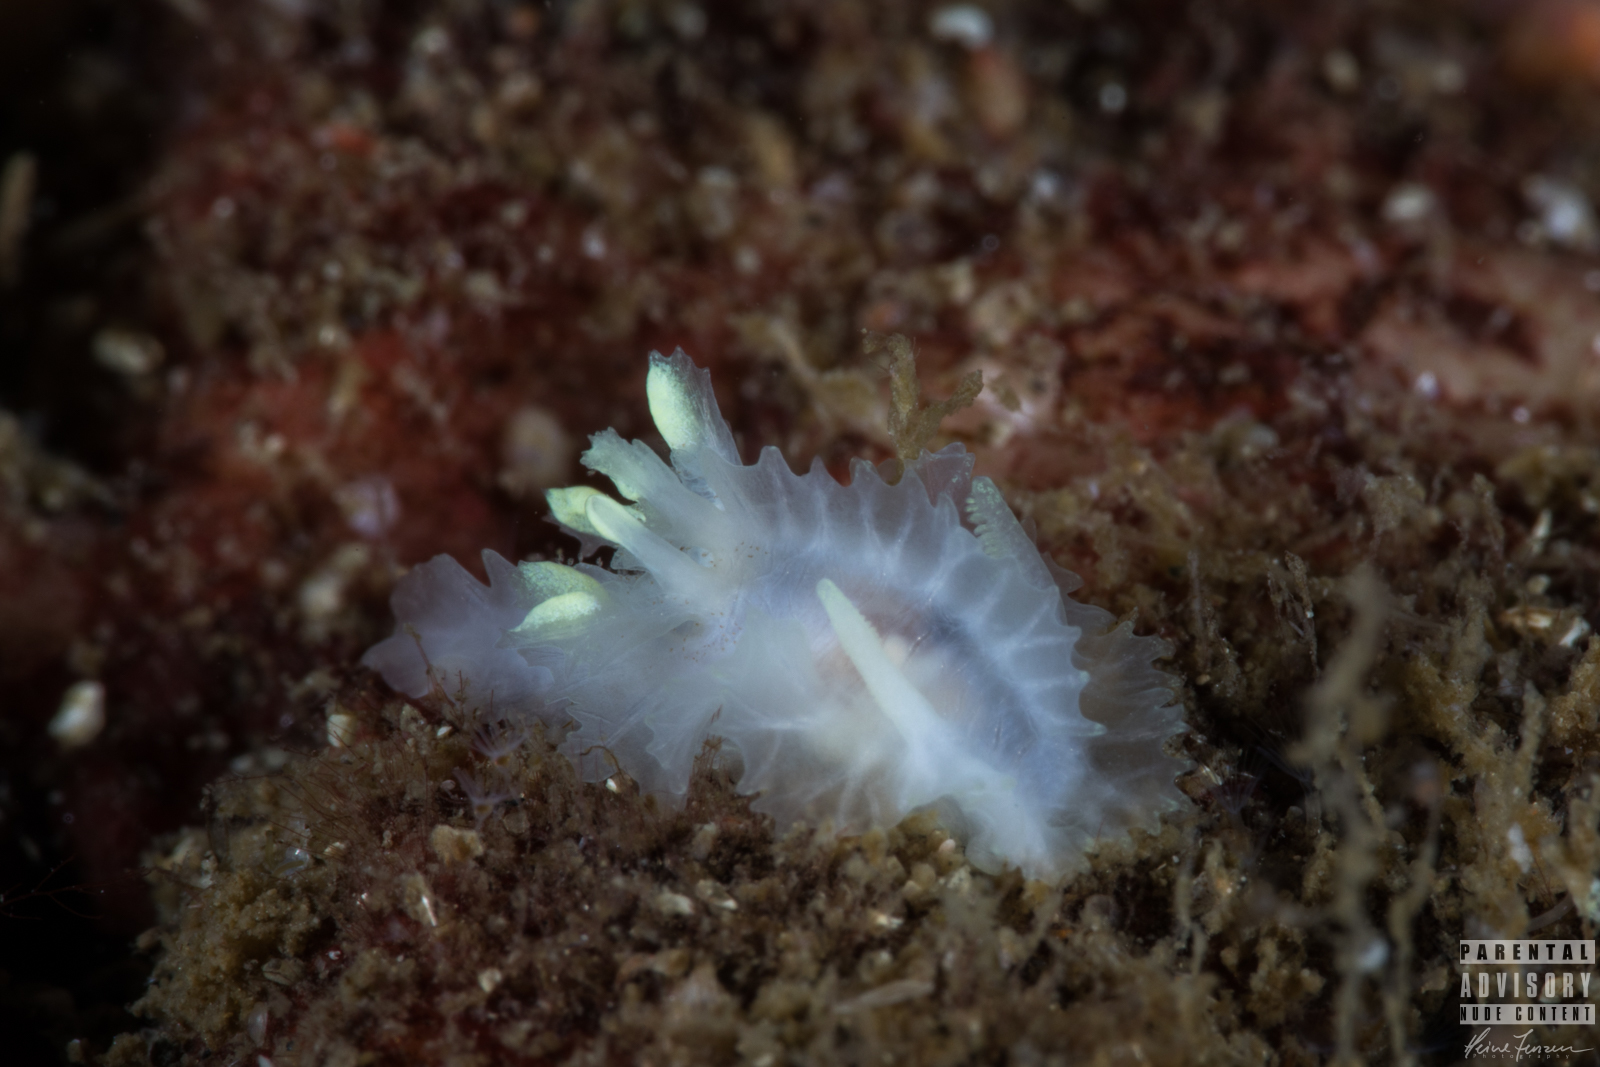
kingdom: Animalia
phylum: Mollusca
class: Gastropoda
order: Nudibranchia
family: Goniodorididae
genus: Lophodoris
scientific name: Lophodoris danielsseni
